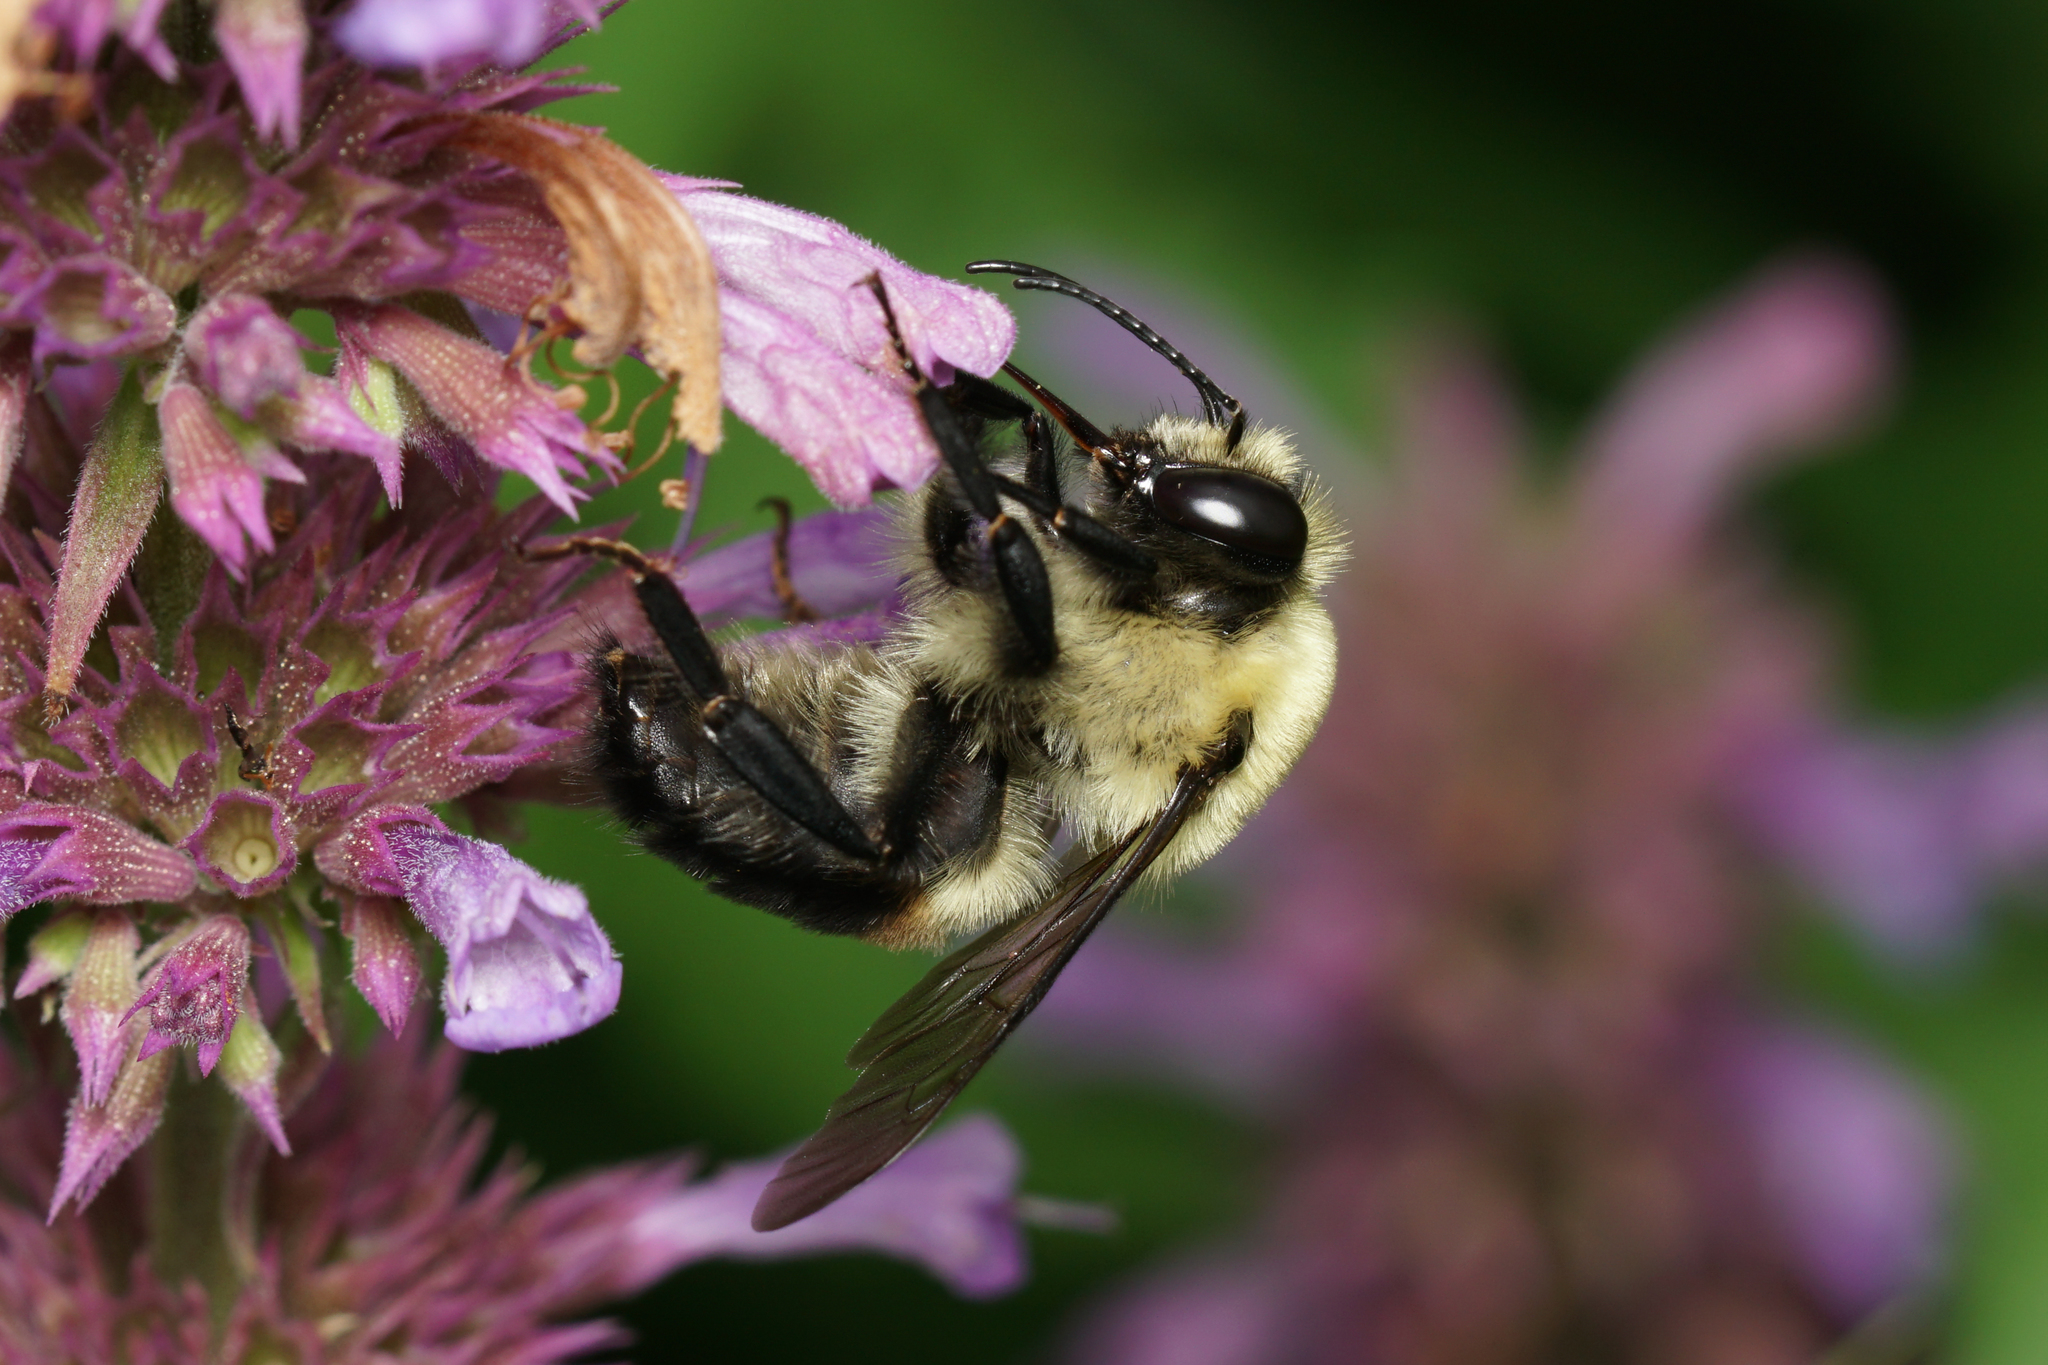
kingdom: Animalia
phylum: Arthropoda
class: Insecta
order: Hymenoptera
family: Apidae
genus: Bombus
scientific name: Bombus griseocollis
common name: Brown-belted bumble bee
